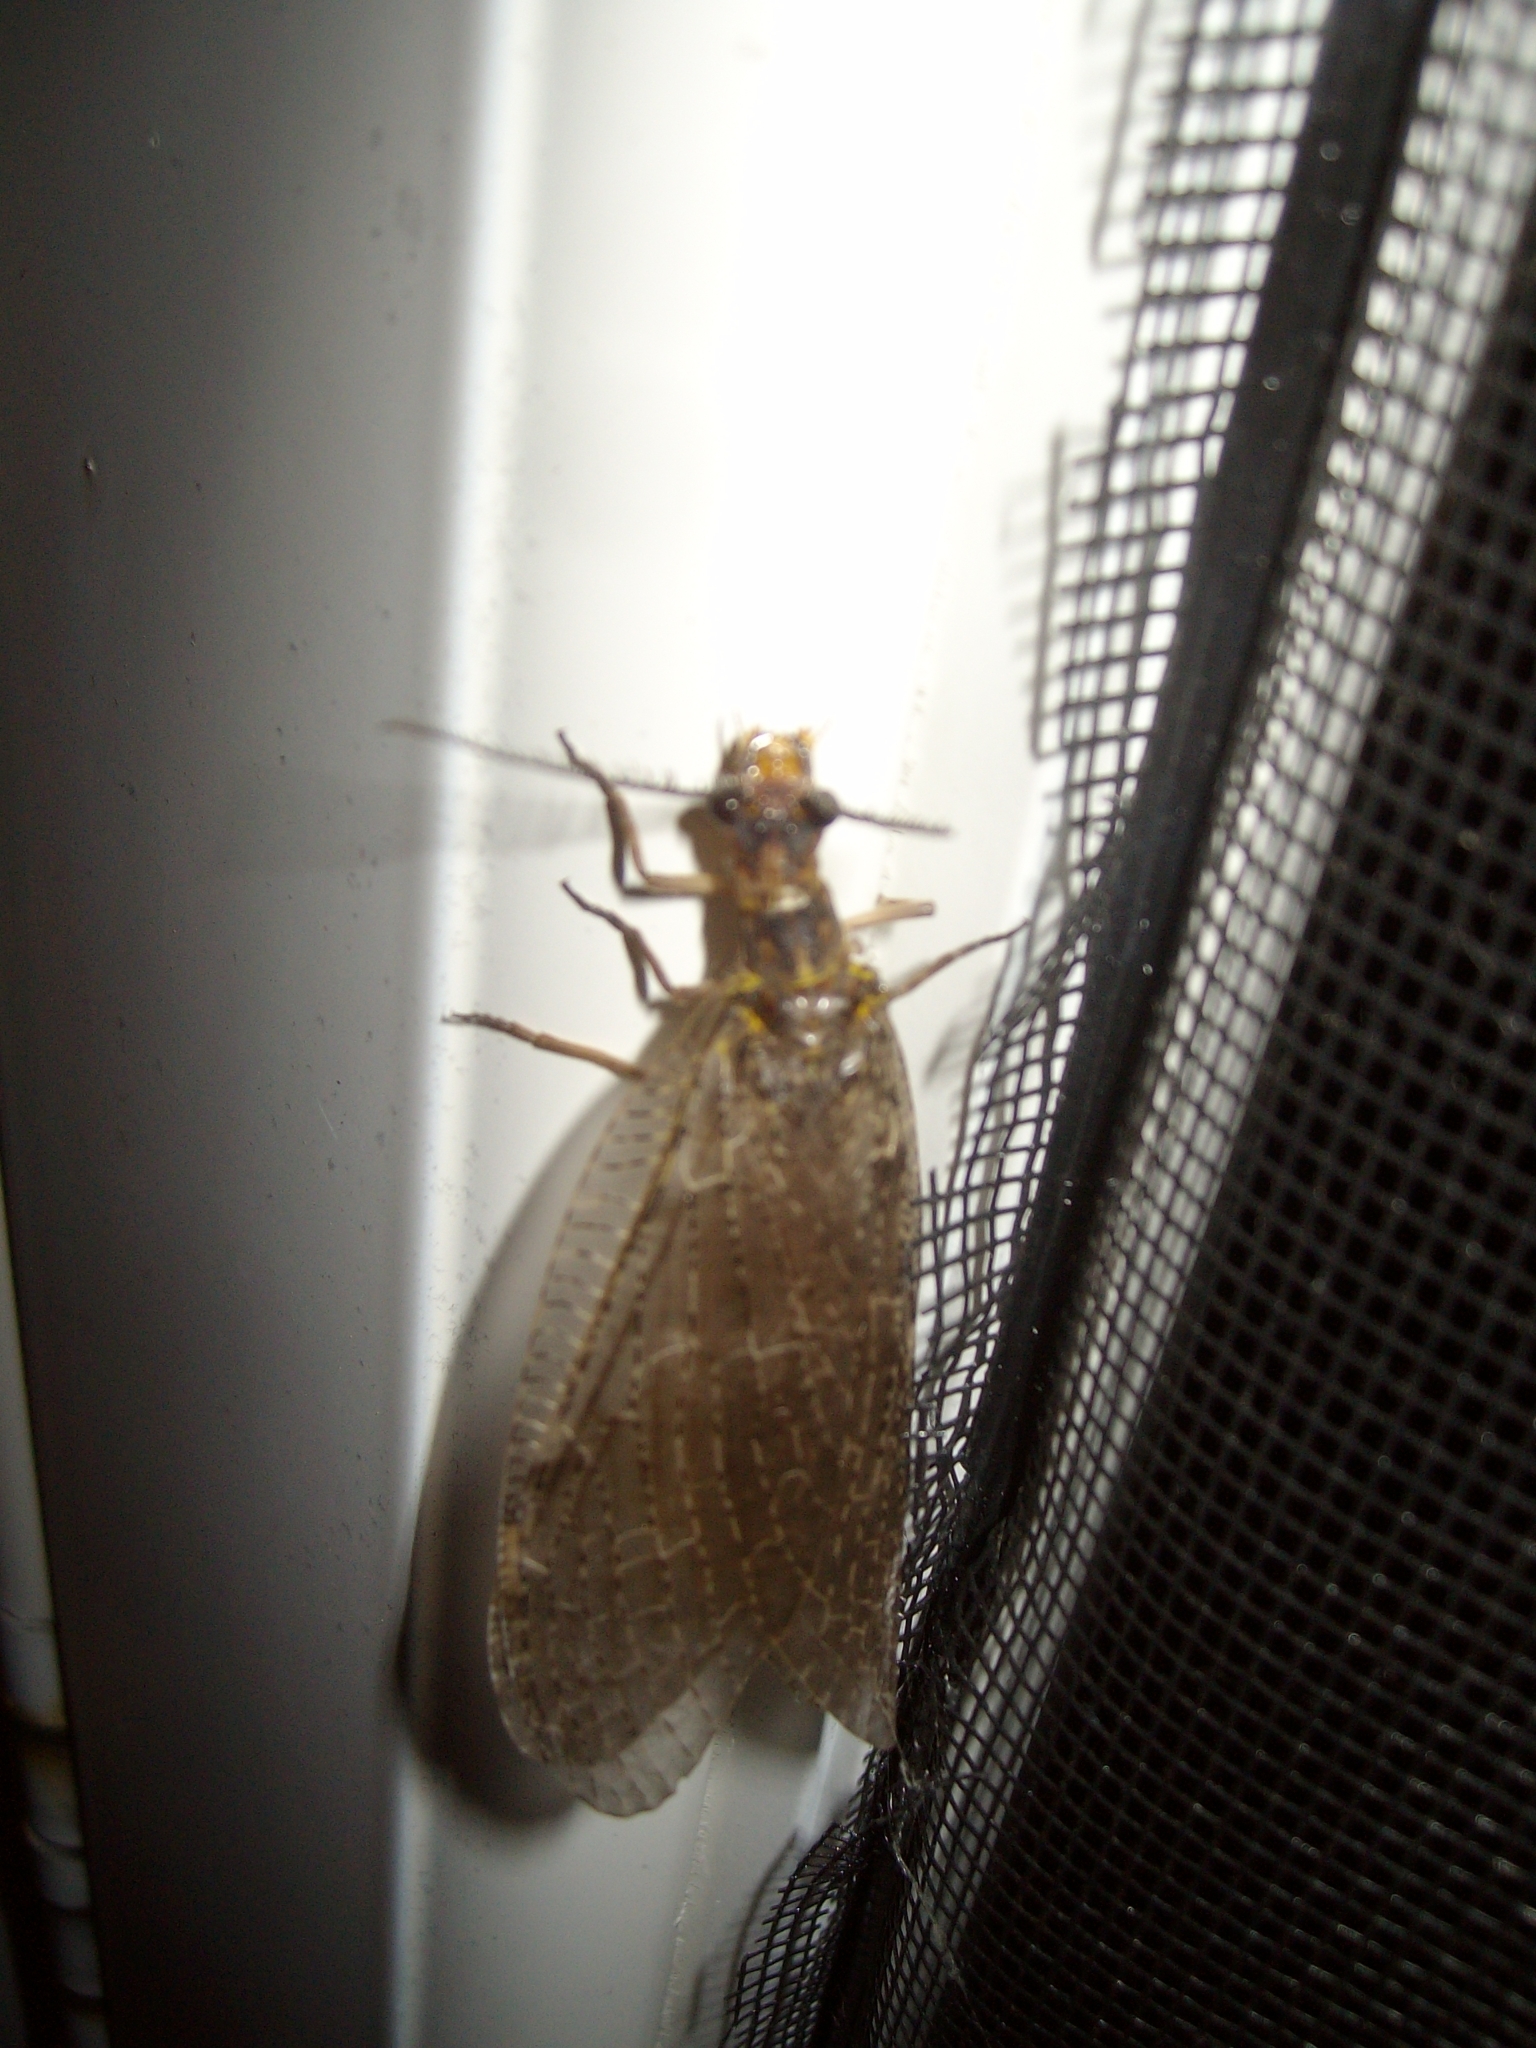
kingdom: Animalia
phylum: Arthropoda
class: Insecta
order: Megaloptera
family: Corydalidae
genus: Chauliodes
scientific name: Chauliodes pectinicornis
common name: Summer fishfly
